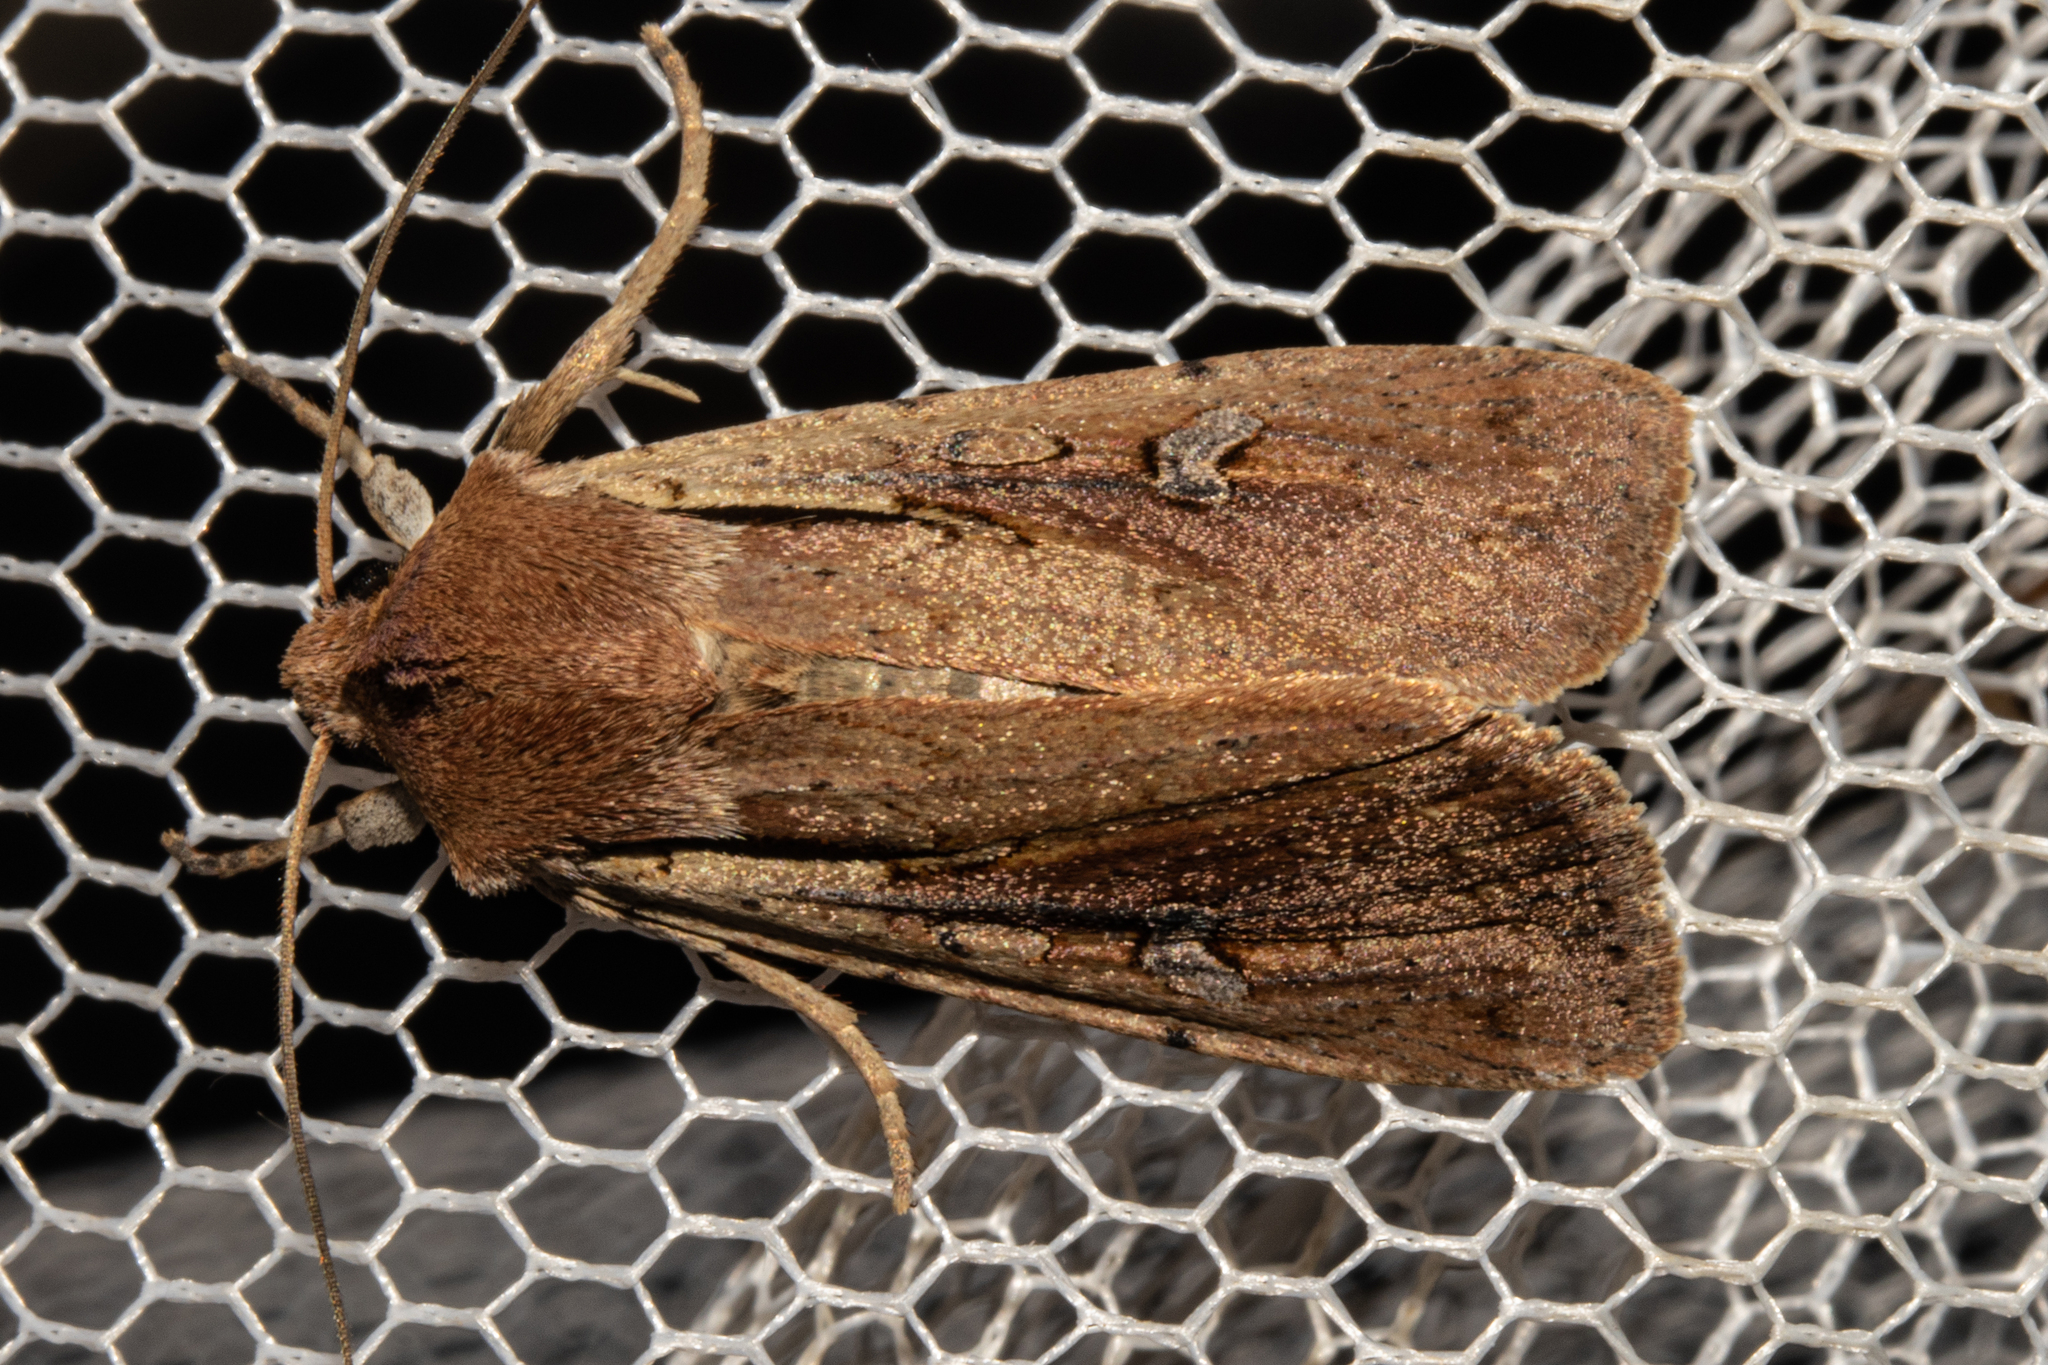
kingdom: Animalia
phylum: Arthropoda
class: Insecta
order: Lepidoptera
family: Noctuidae
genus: Ichneutica
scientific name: Ichneutica atristriga
